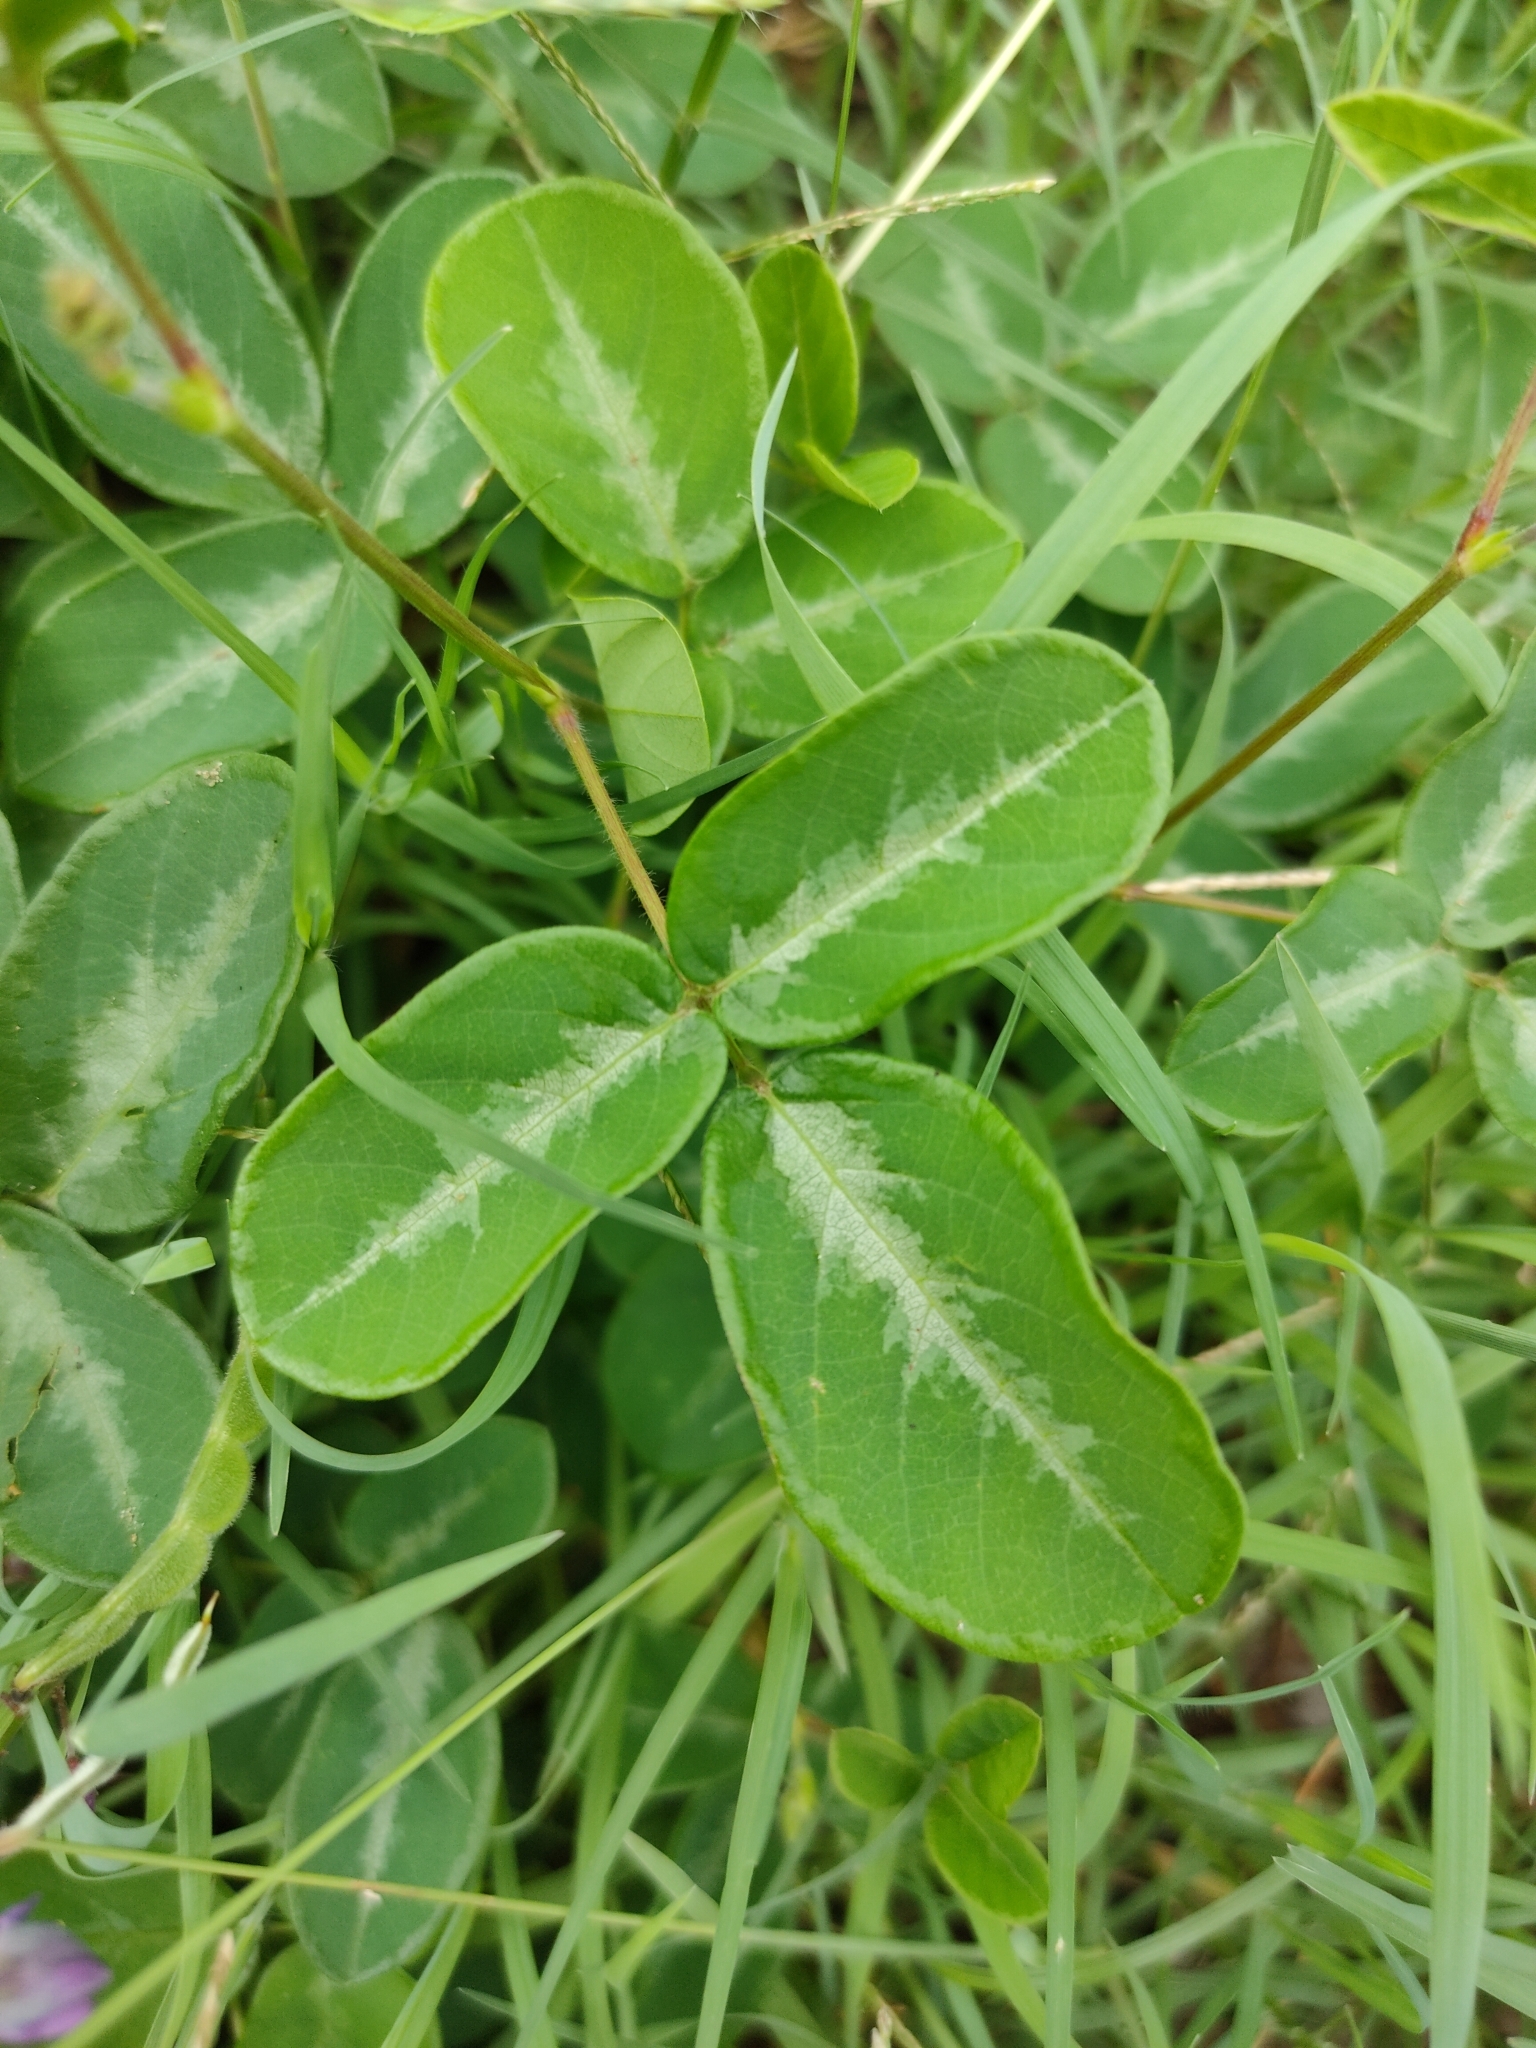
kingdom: Plantae
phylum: Tracheophyta
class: Magnoliopsida
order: Fabales
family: Fabaceae
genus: Desmodium
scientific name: Desmodium incanum
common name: Tickclover
